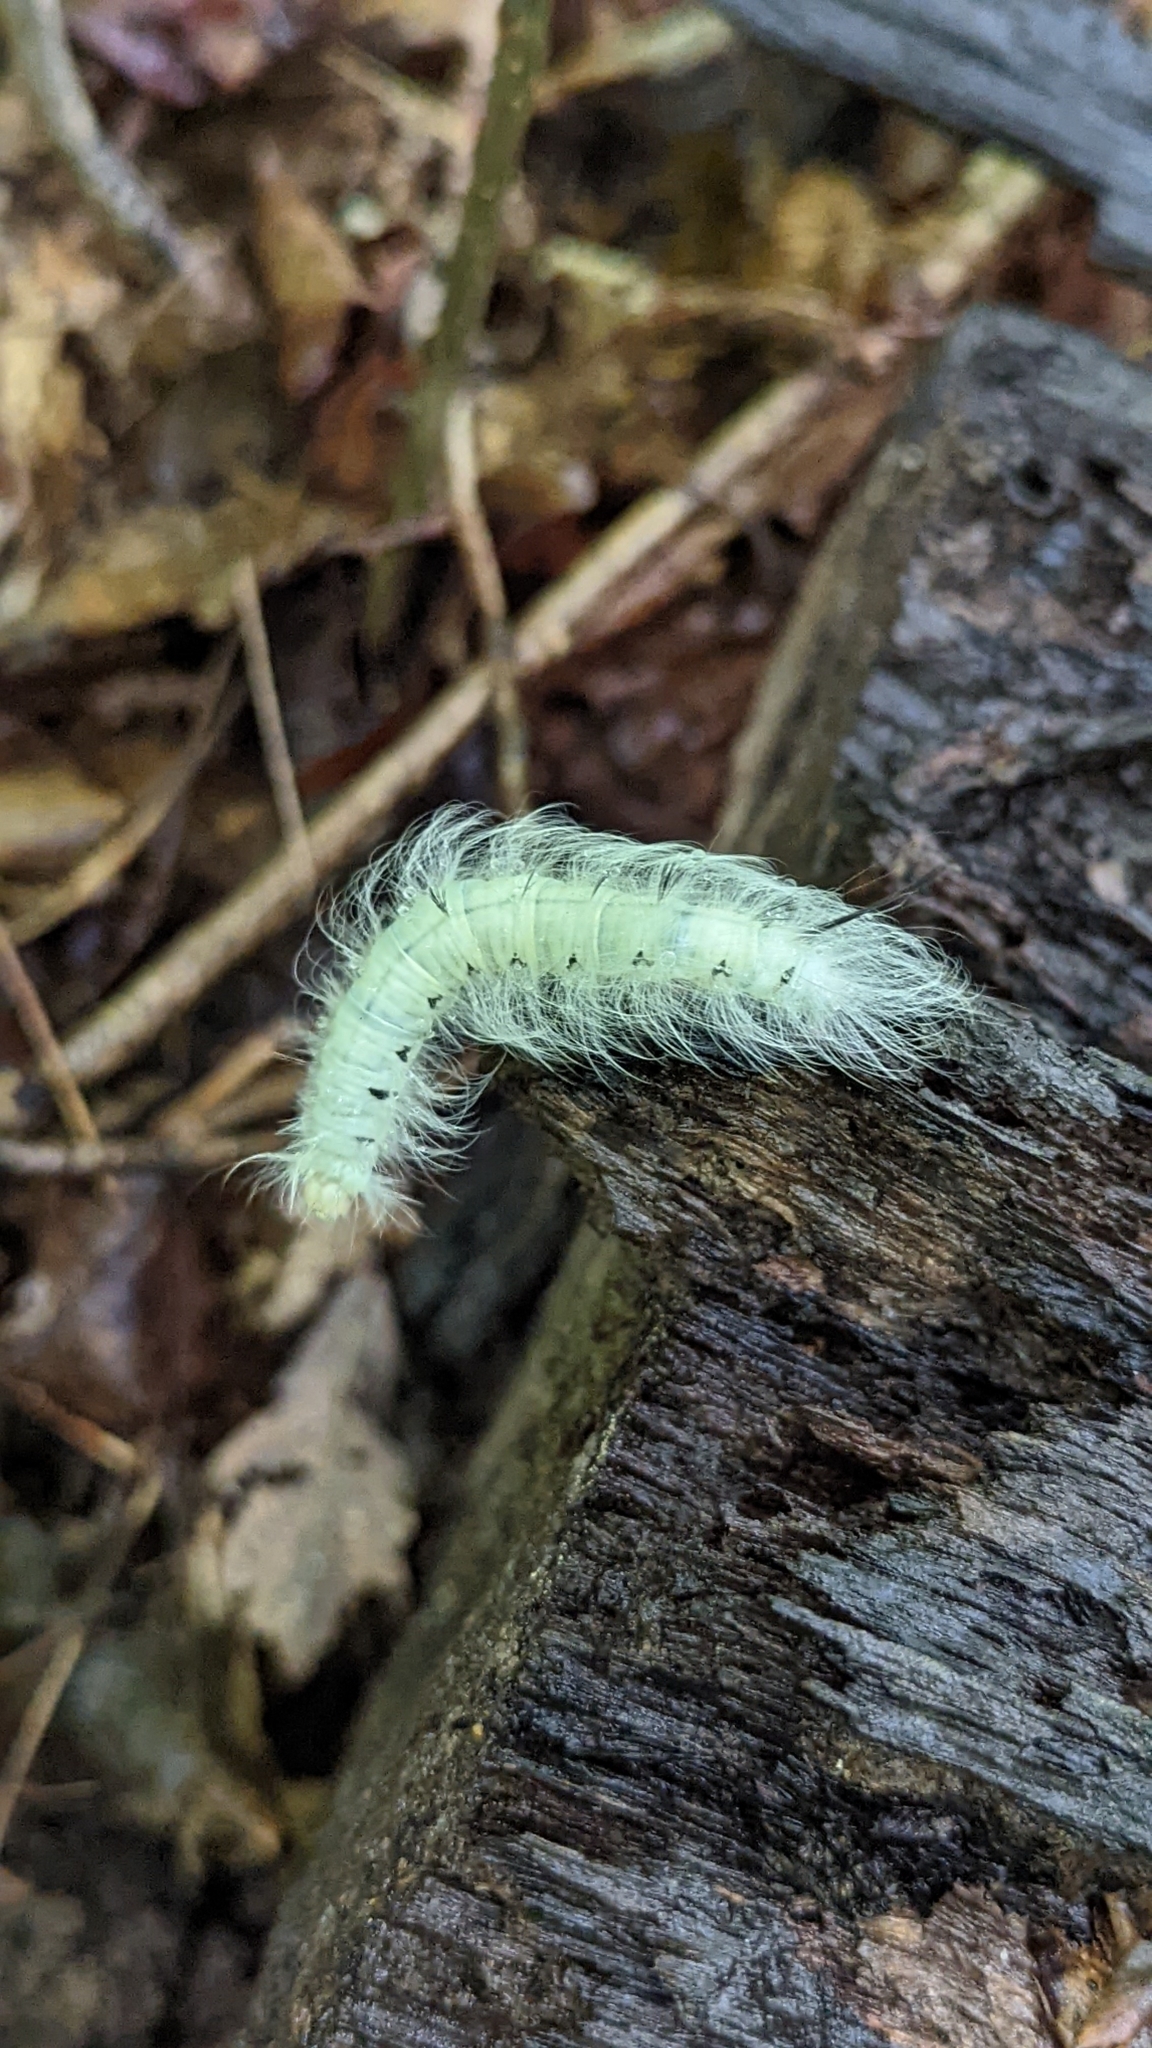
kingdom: Animalia
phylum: Arthropoda
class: Insecta
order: Lepidoptera
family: Apatelodidae
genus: Hygrochroa
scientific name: Hygrochroa Apatelodes torrefacta
